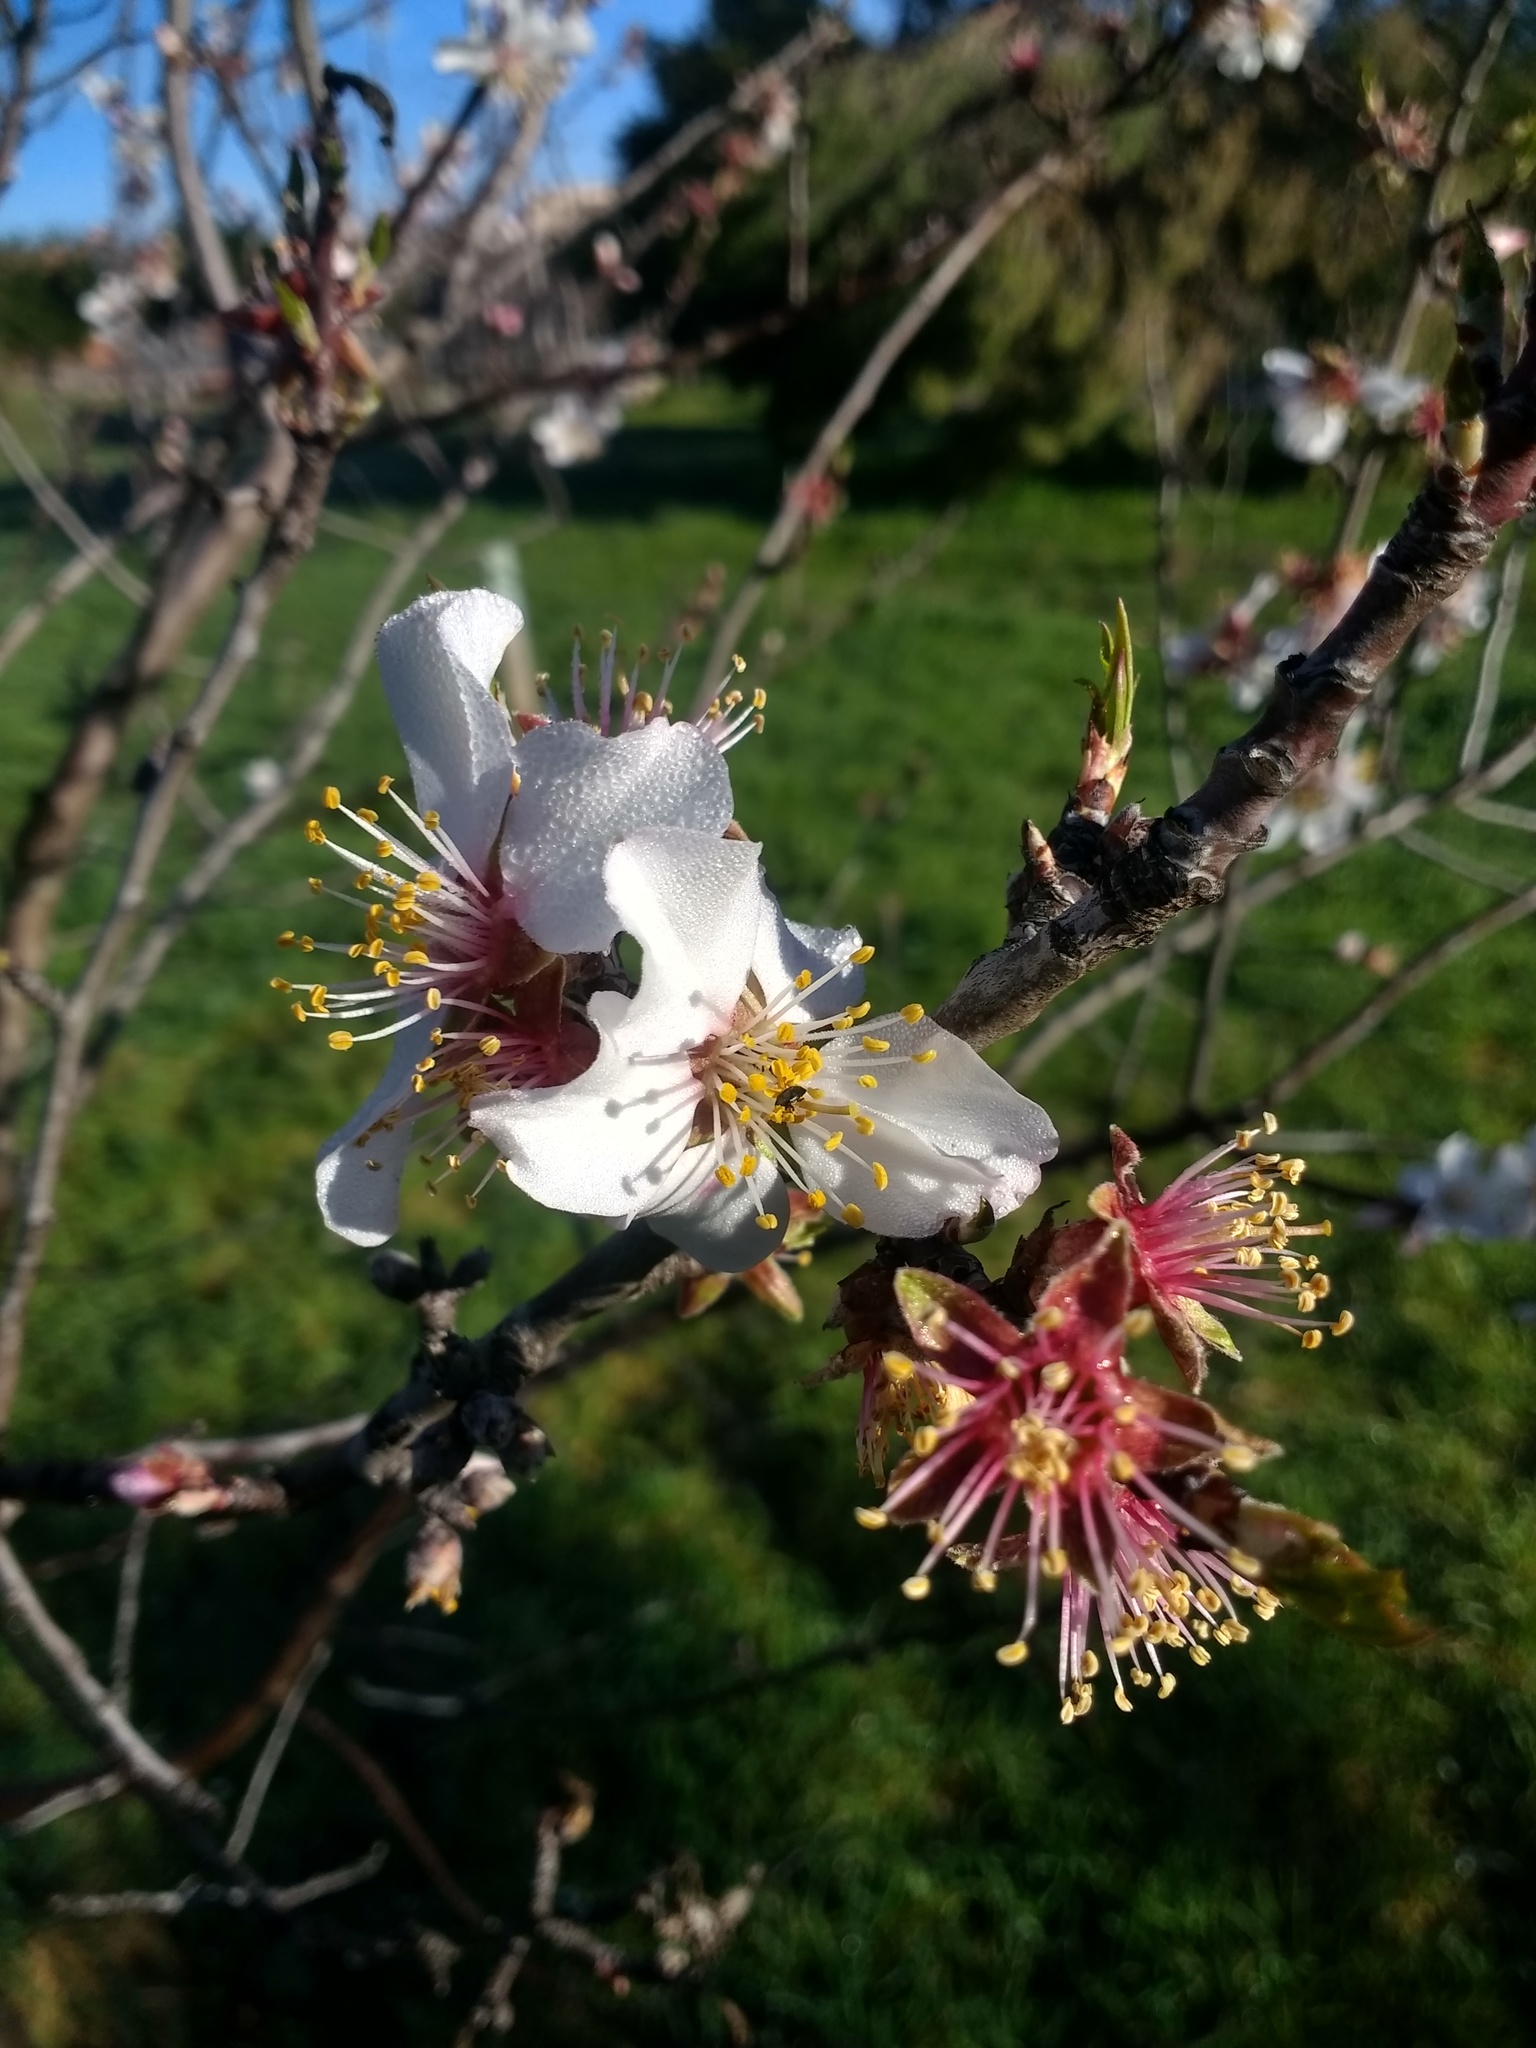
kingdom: Plantae
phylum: Tracheophyta
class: Magnoliopsida
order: Rosales
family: Rosaceae
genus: Prunus
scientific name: Prunus amygdalus
